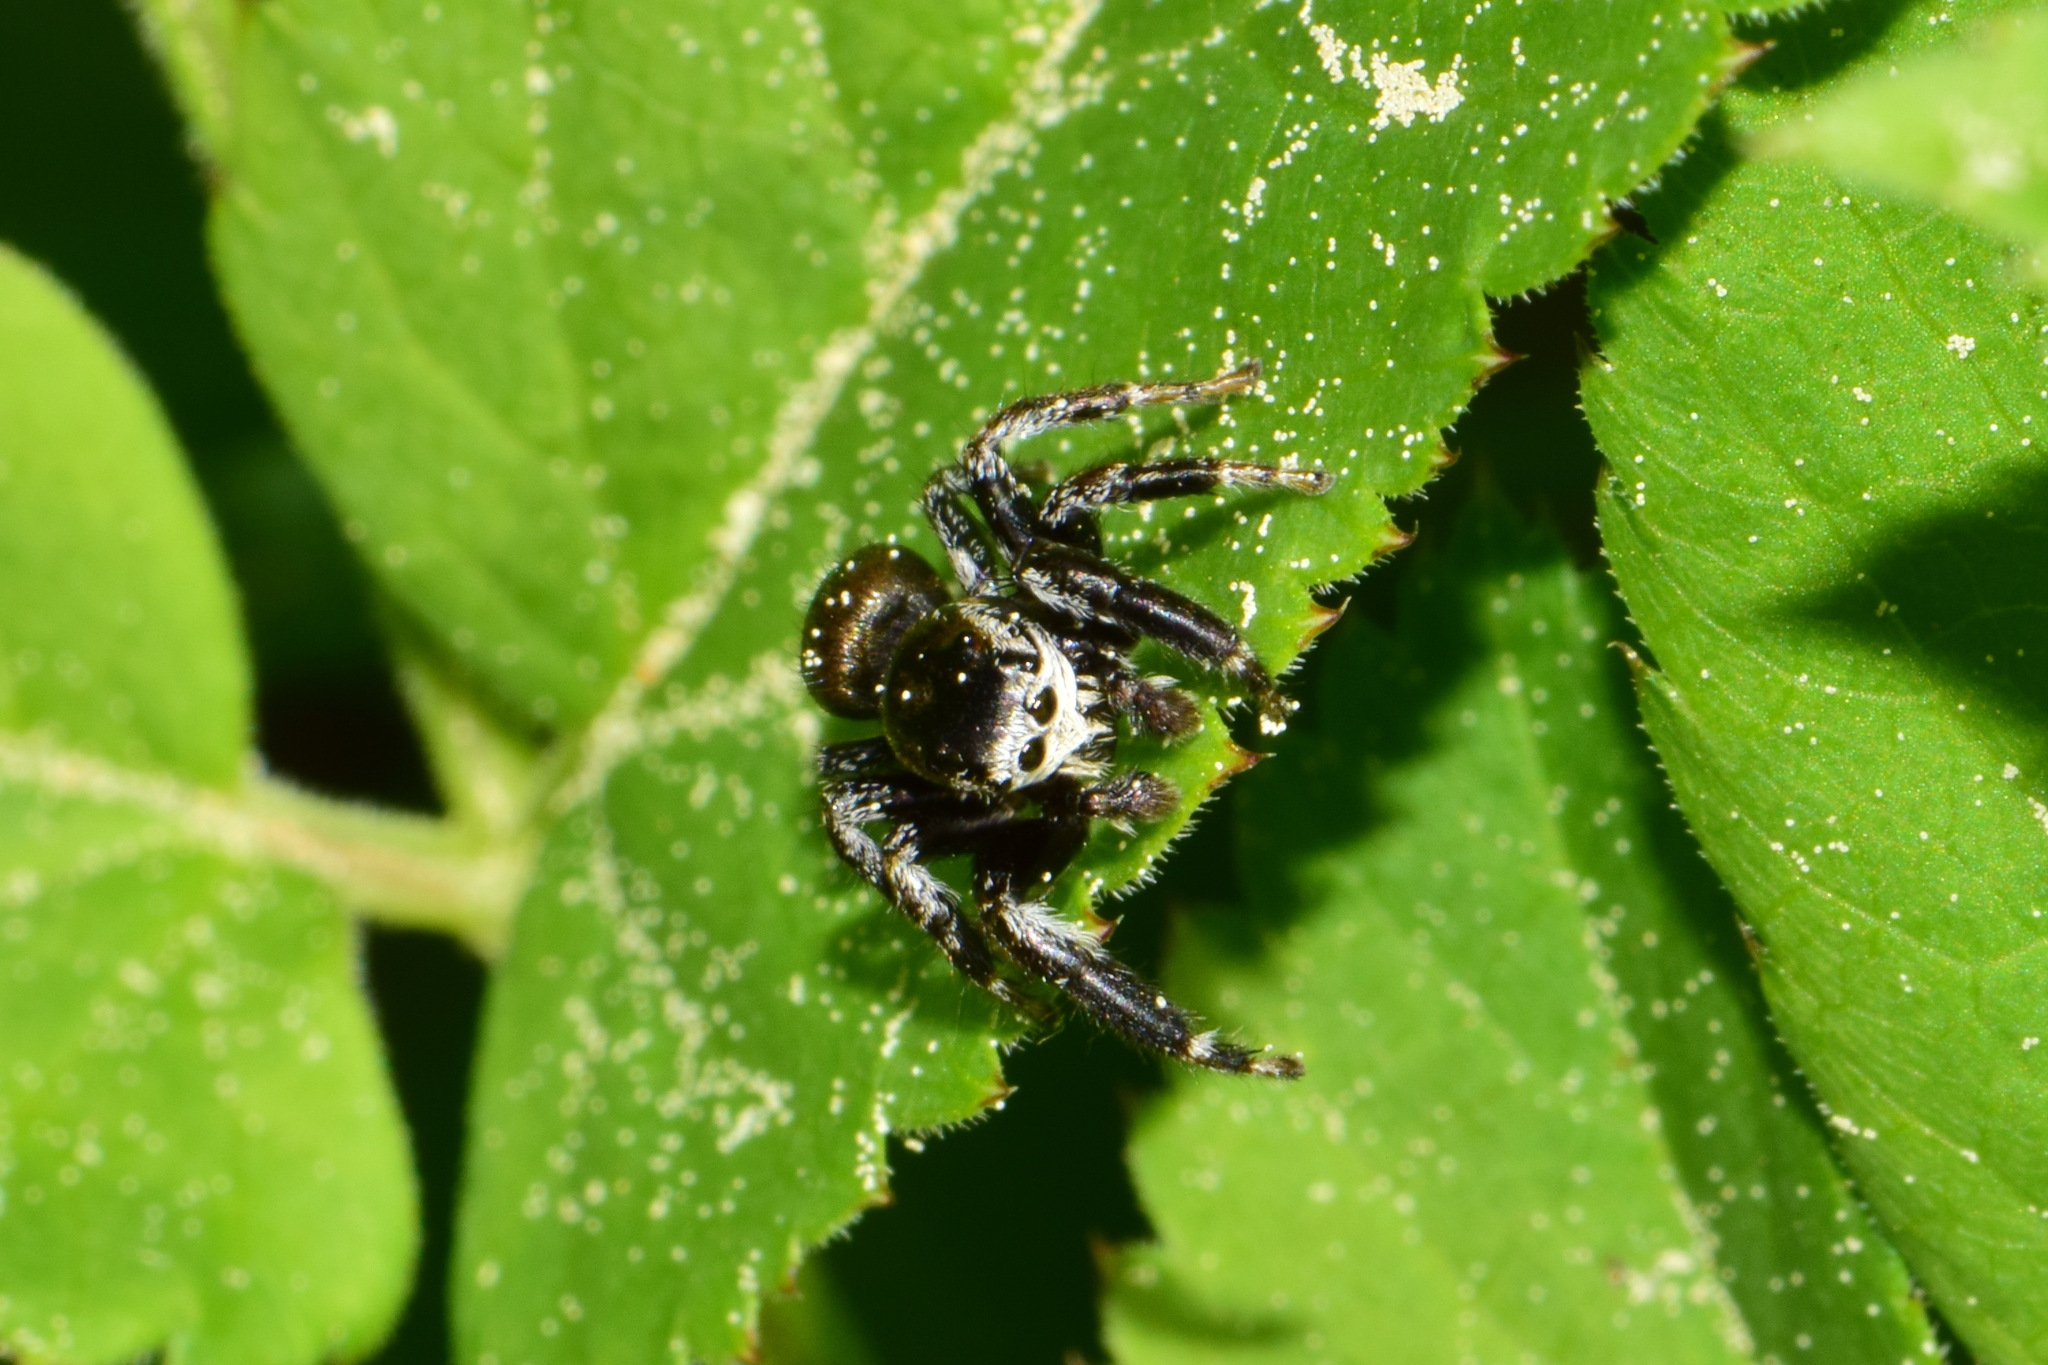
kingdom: Animalia
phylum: Arthropoda
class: Arachnida
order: Araneae
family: Salticidae
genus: Evarcha
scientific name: Evarcha arcuata
